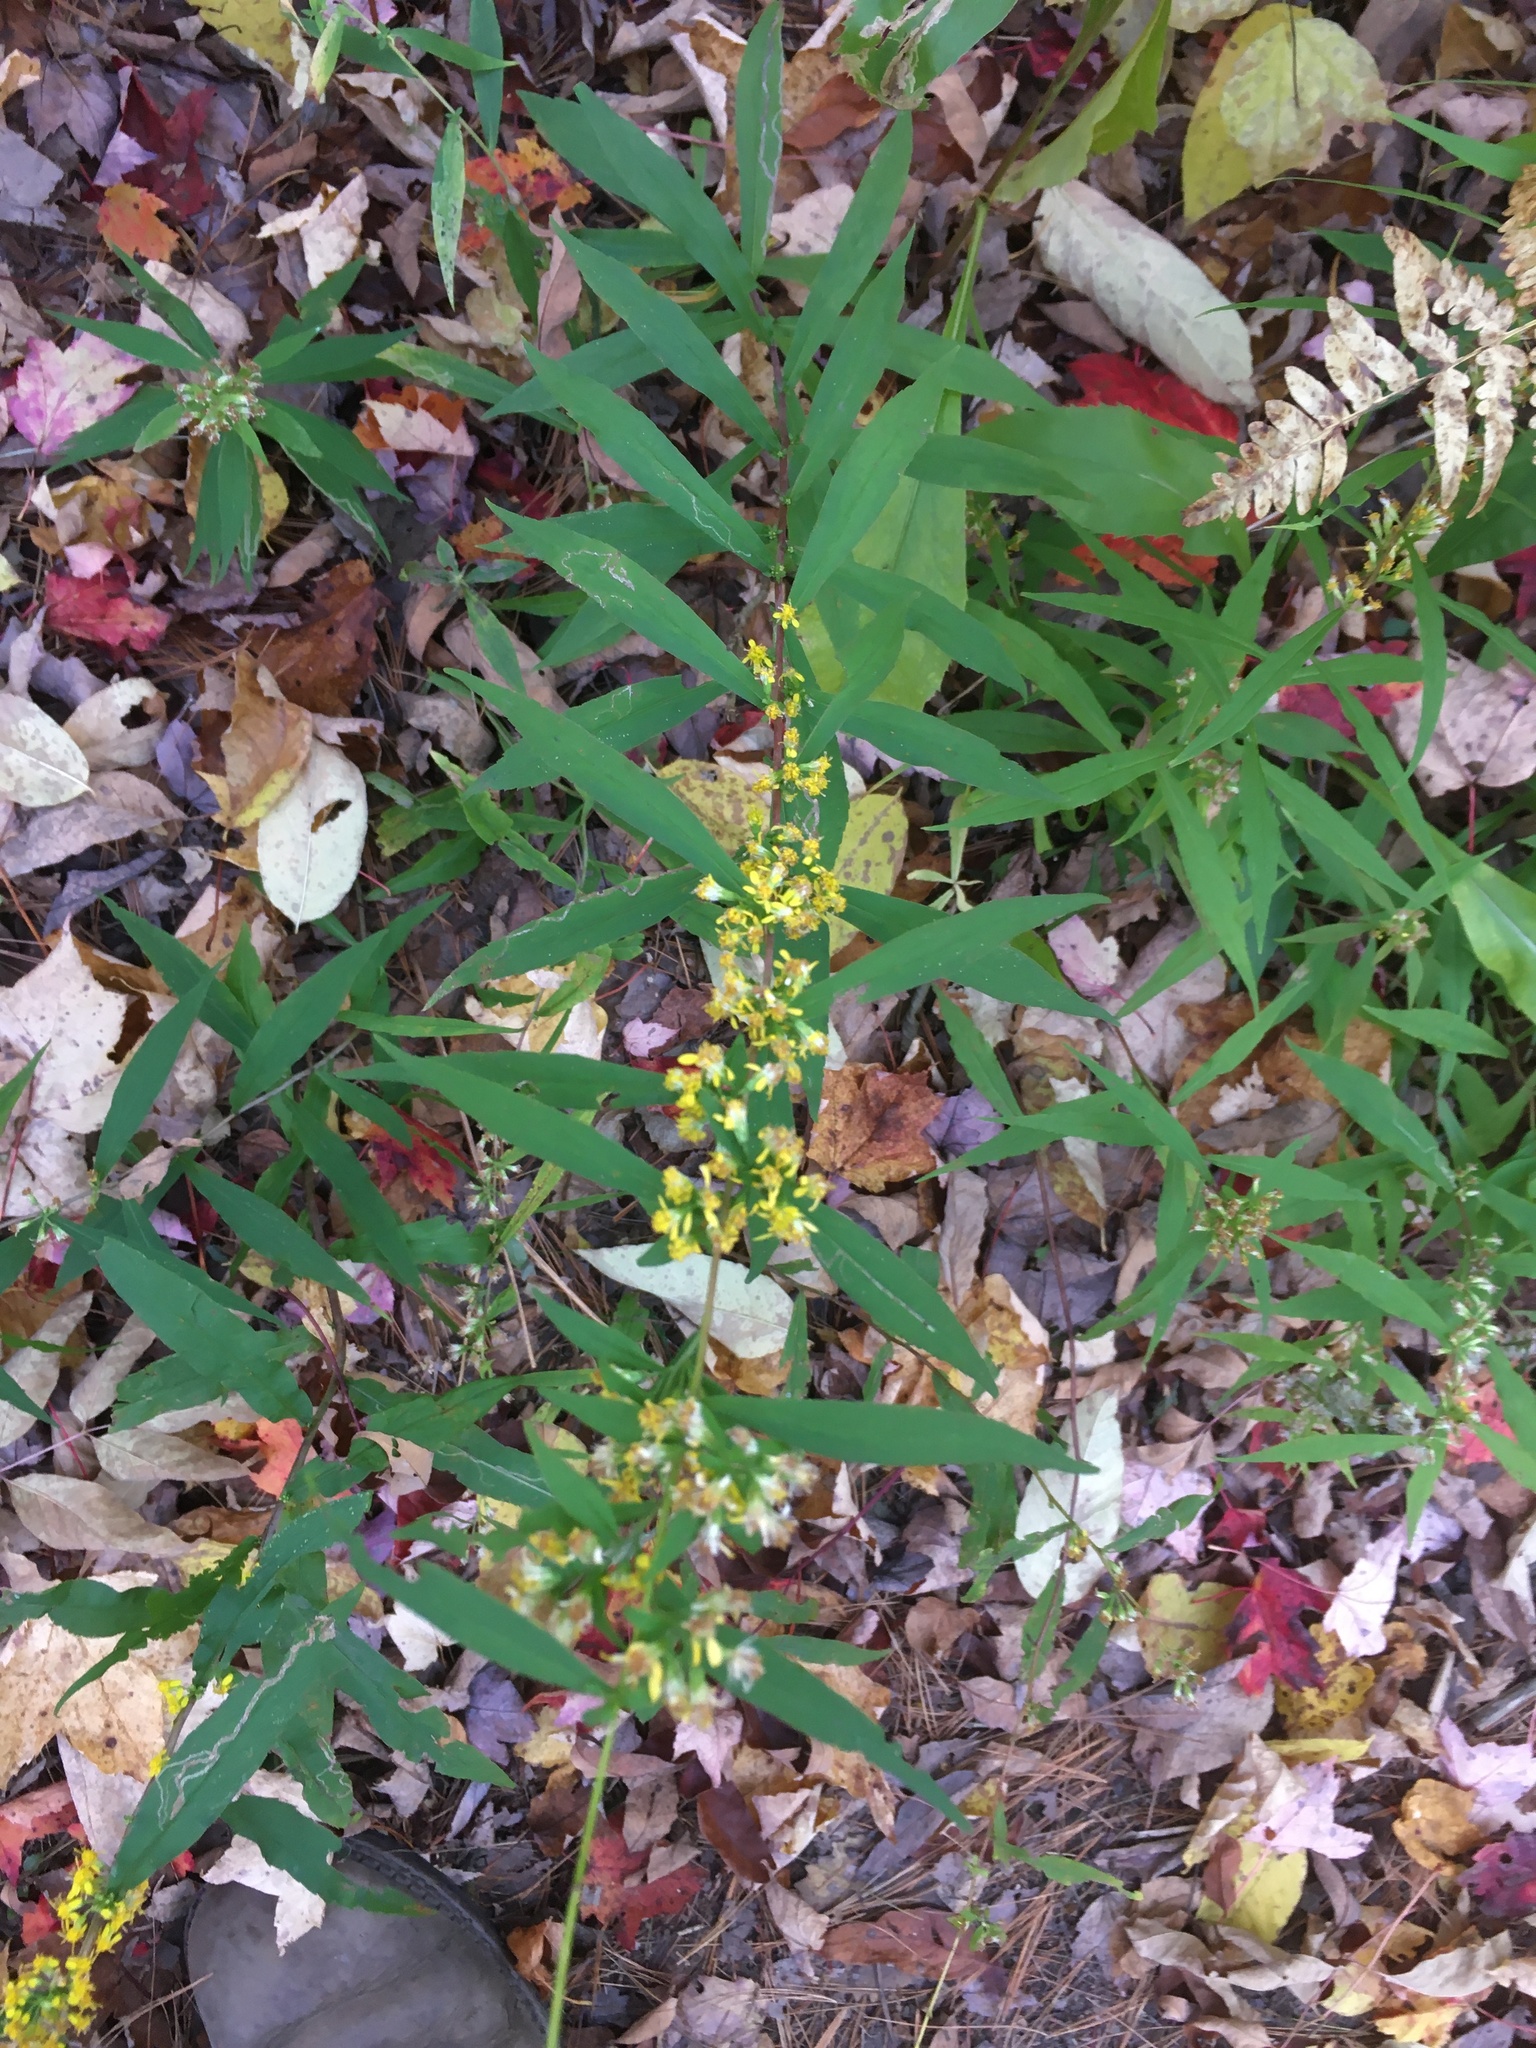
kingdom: Plantae
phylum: Tracheophyta
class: Magnoliopsida
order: Asterales
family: Asteraceae
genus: Solidago
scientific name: Solidago caesia
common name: Woodland goldenrod
